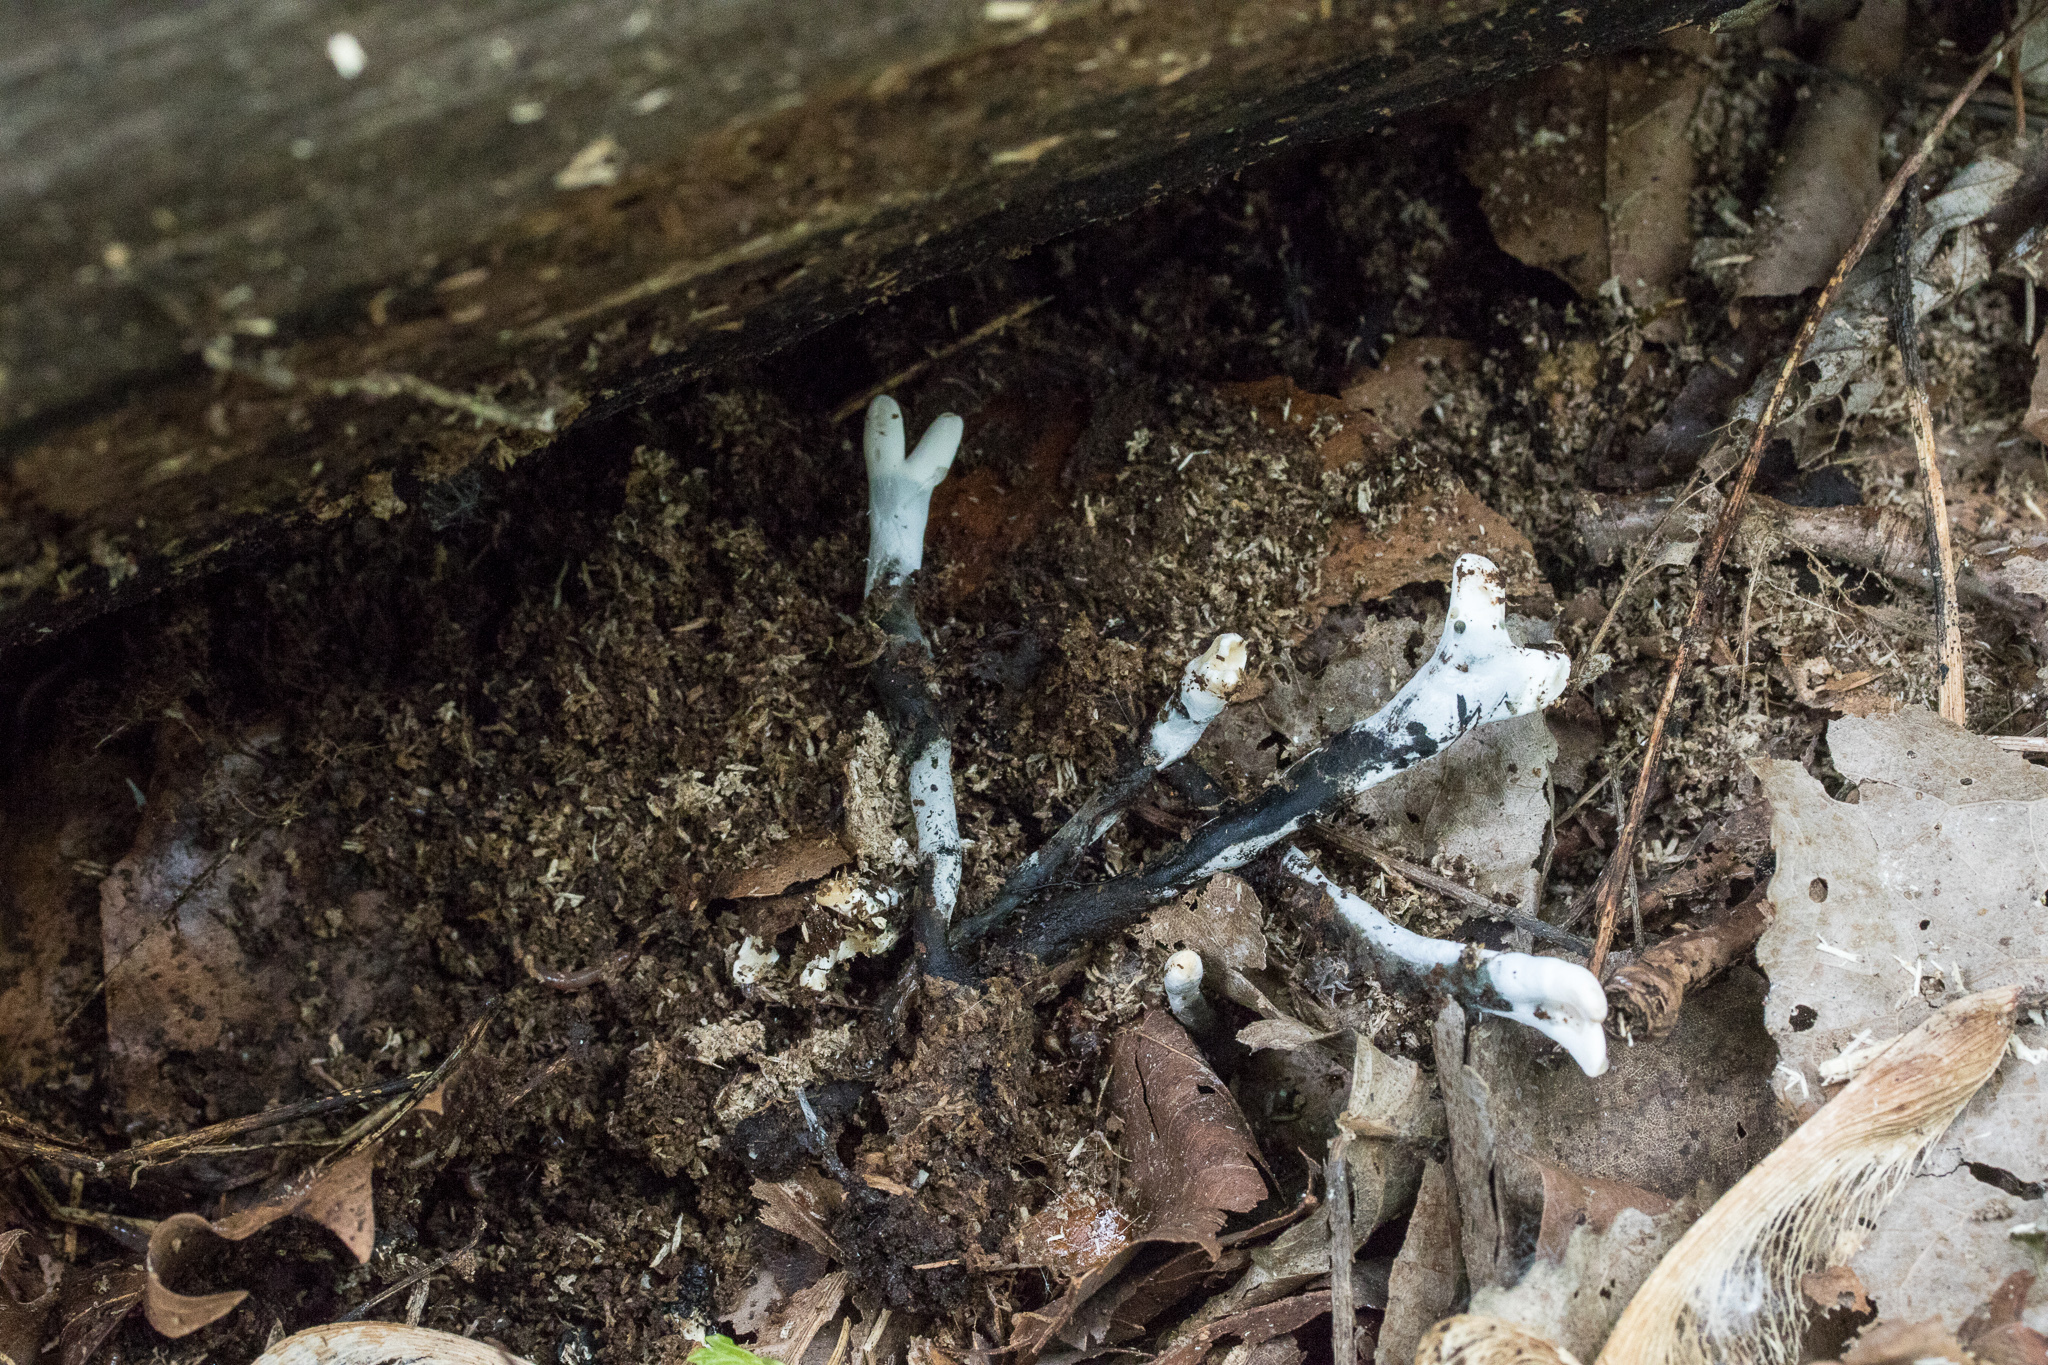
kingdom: Fungi
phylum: Ascomycota
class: Sordariomycetes
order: Xylariales
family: Xylariaceae
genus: Xylaria
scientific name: Xylaria hypoxylon
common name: Candle-snuff fungus
